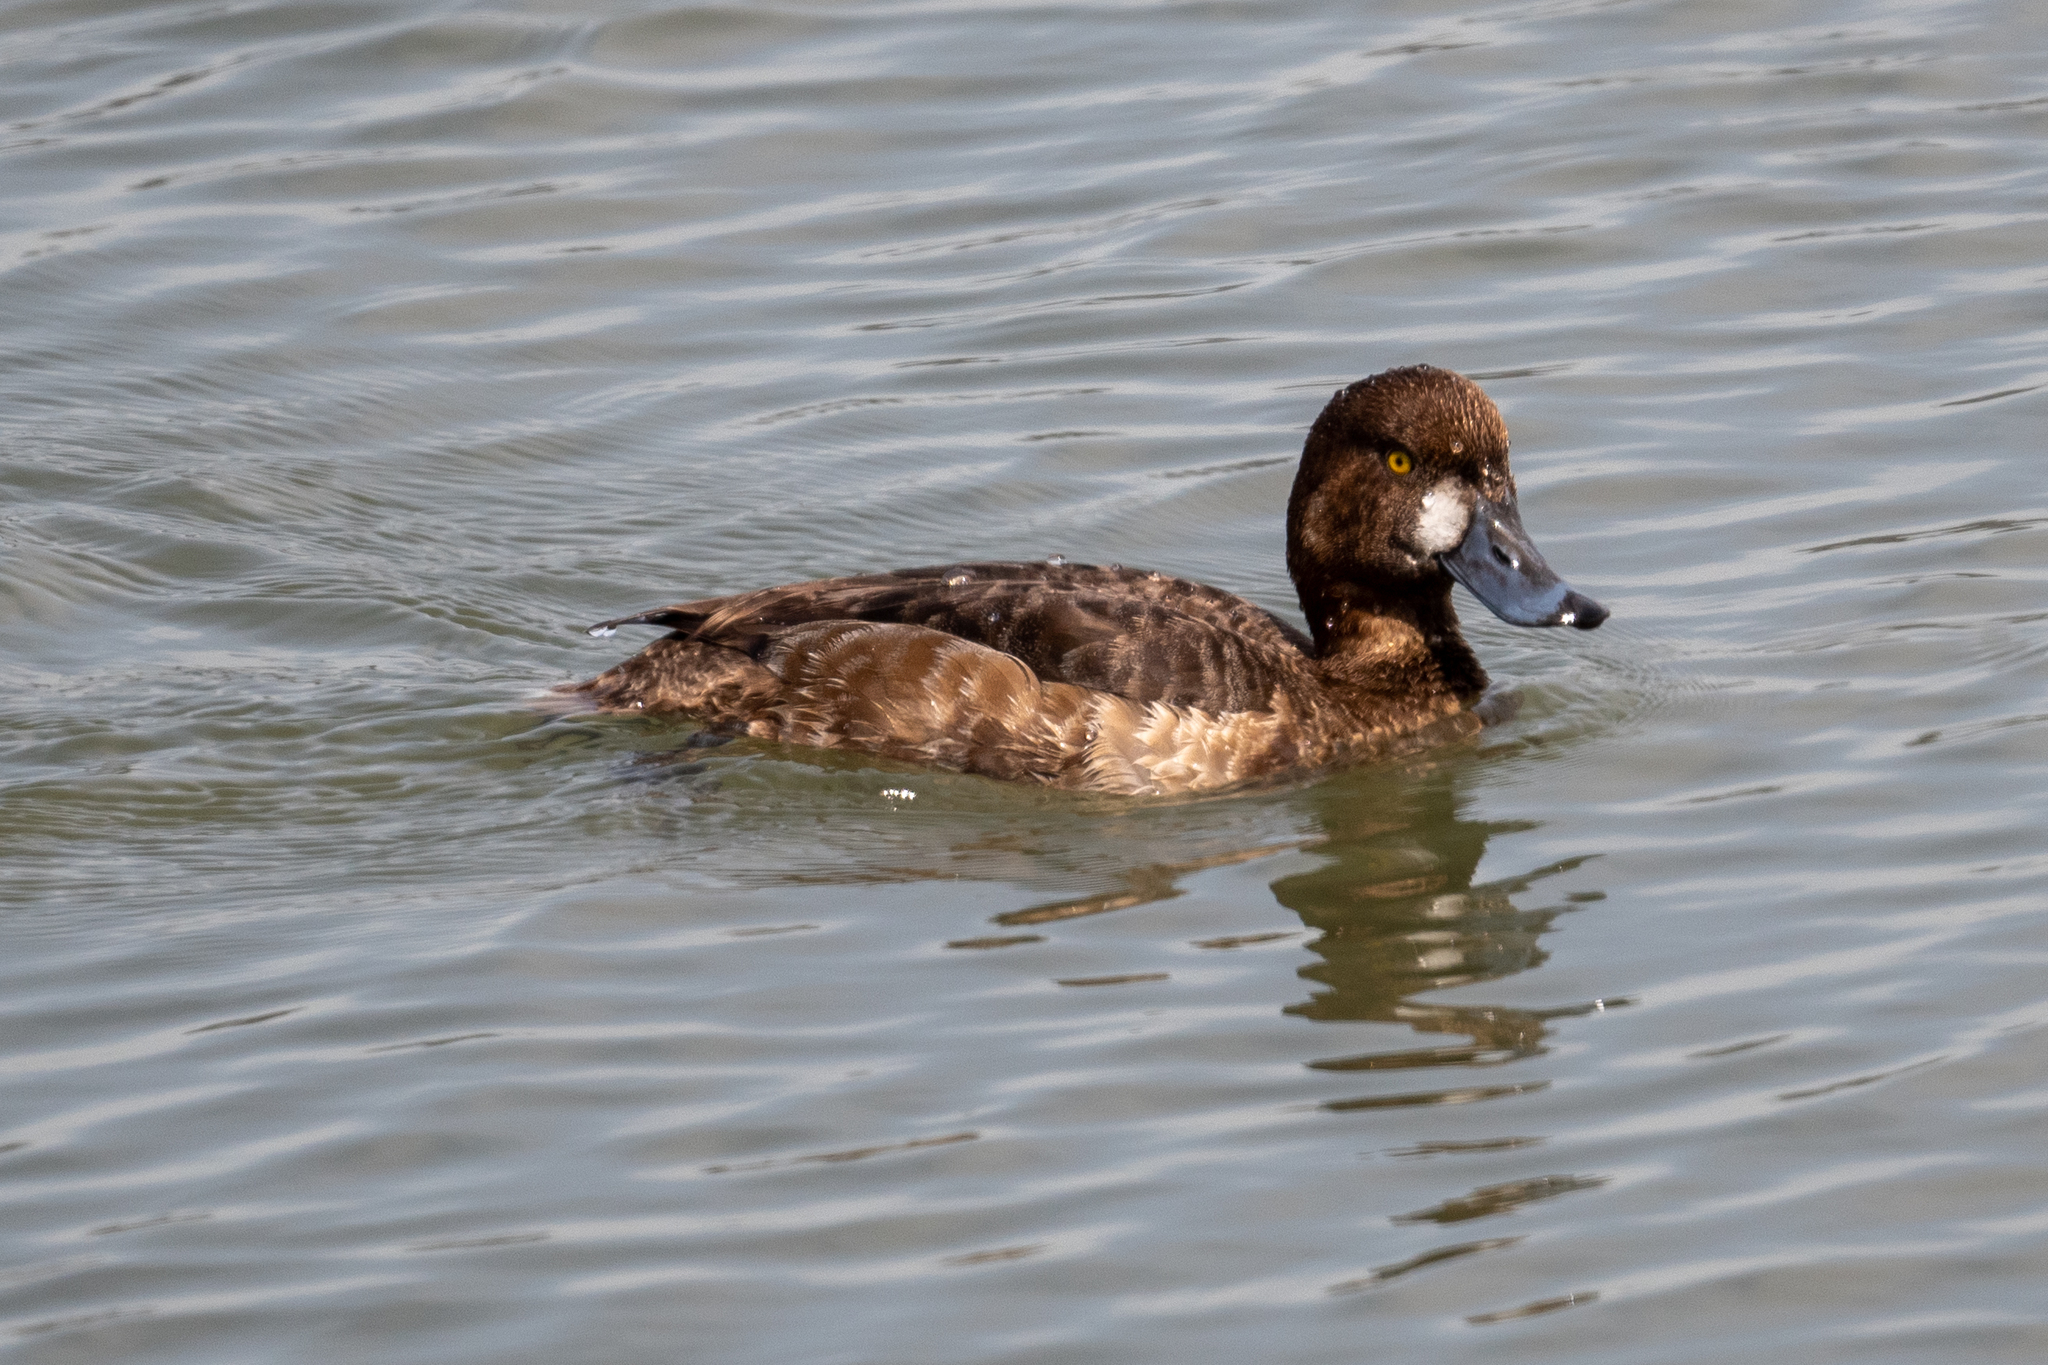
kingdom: Animalia
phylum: Chordata
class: Aves
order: Anseriformes
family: Anatidae
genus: Aythya
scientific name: Aythya marila
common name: Greater scaup
